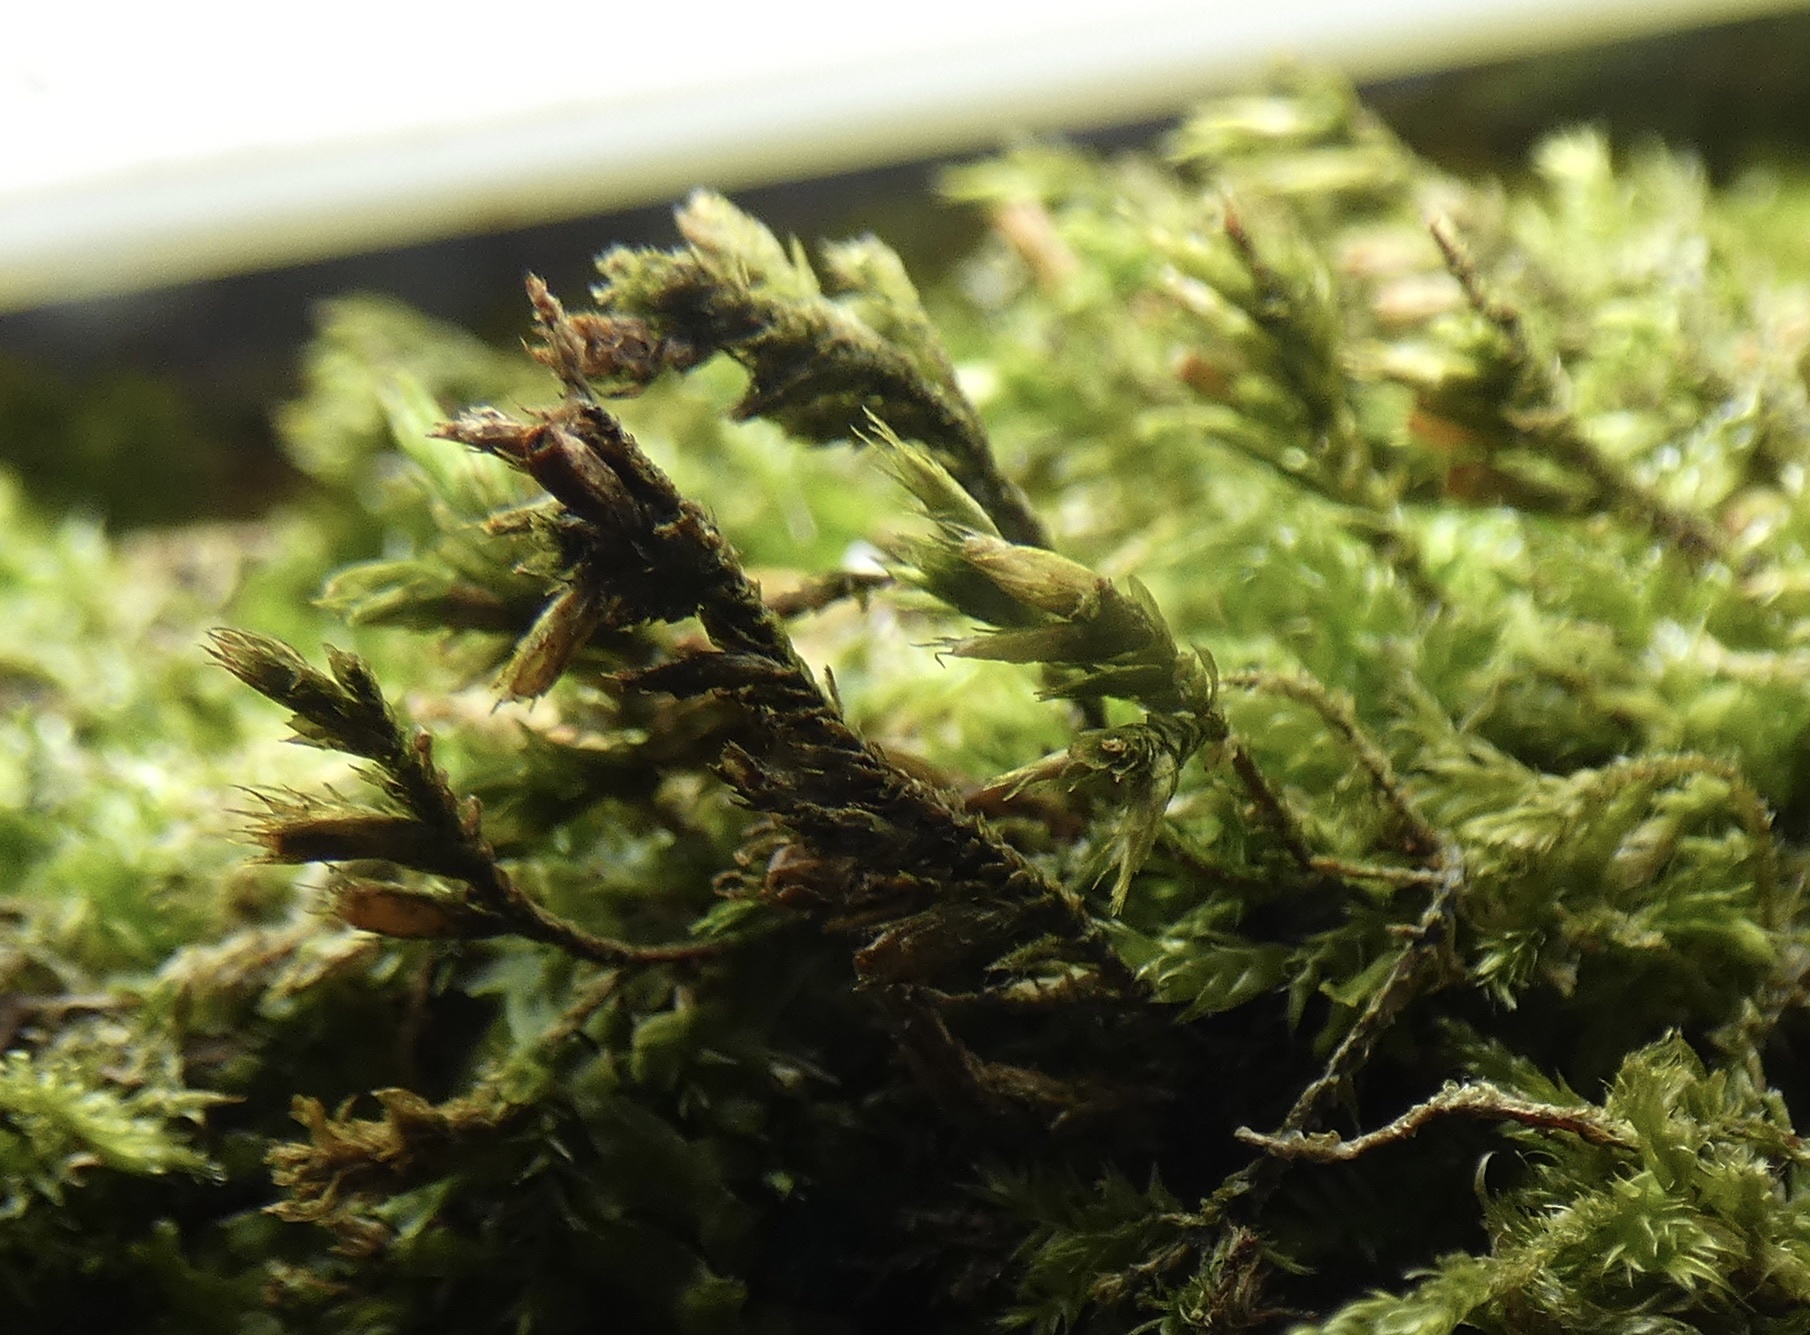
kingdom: Plantae
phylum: Bryophyta
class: Bryopsida
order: Hypnales
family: Cryphaeaceae
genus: Cryphaea
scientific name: Cryphaea heteromalla
